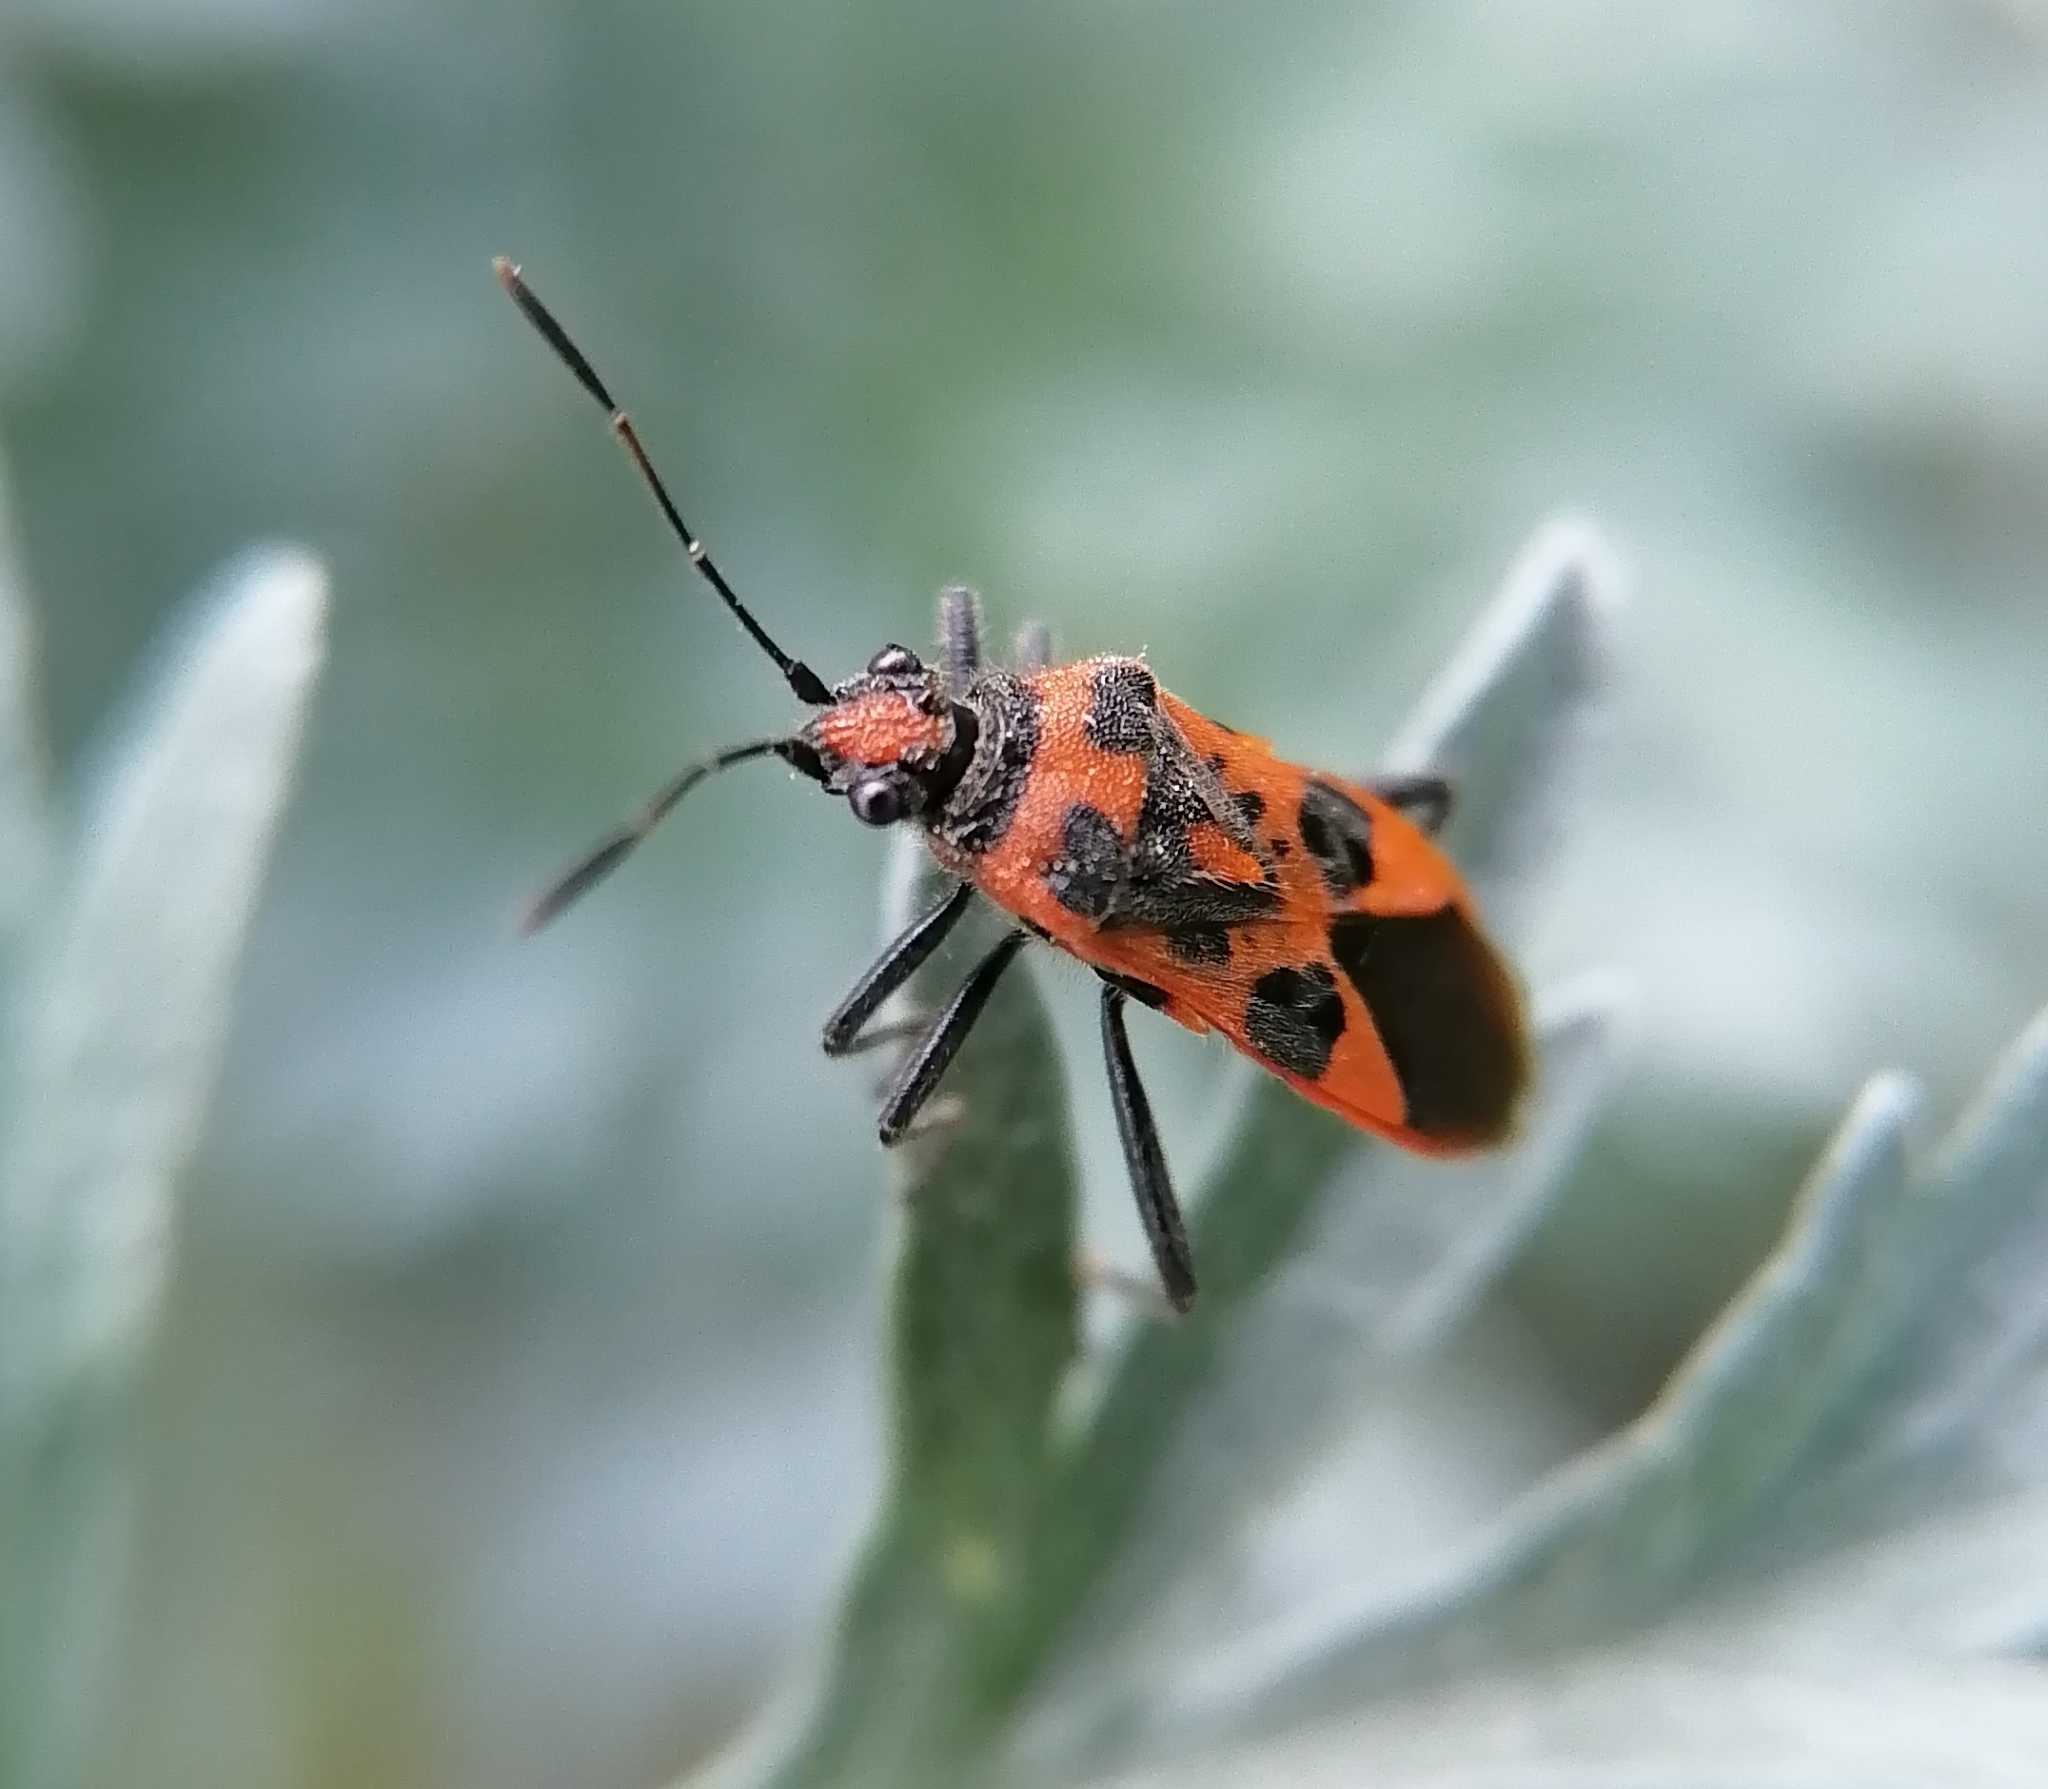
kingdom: Animalia
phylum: Arthropoda
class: Insecta
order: Hemiptera
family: Rhopalidae
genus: Corizus
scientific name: Corizus hyoscyami
